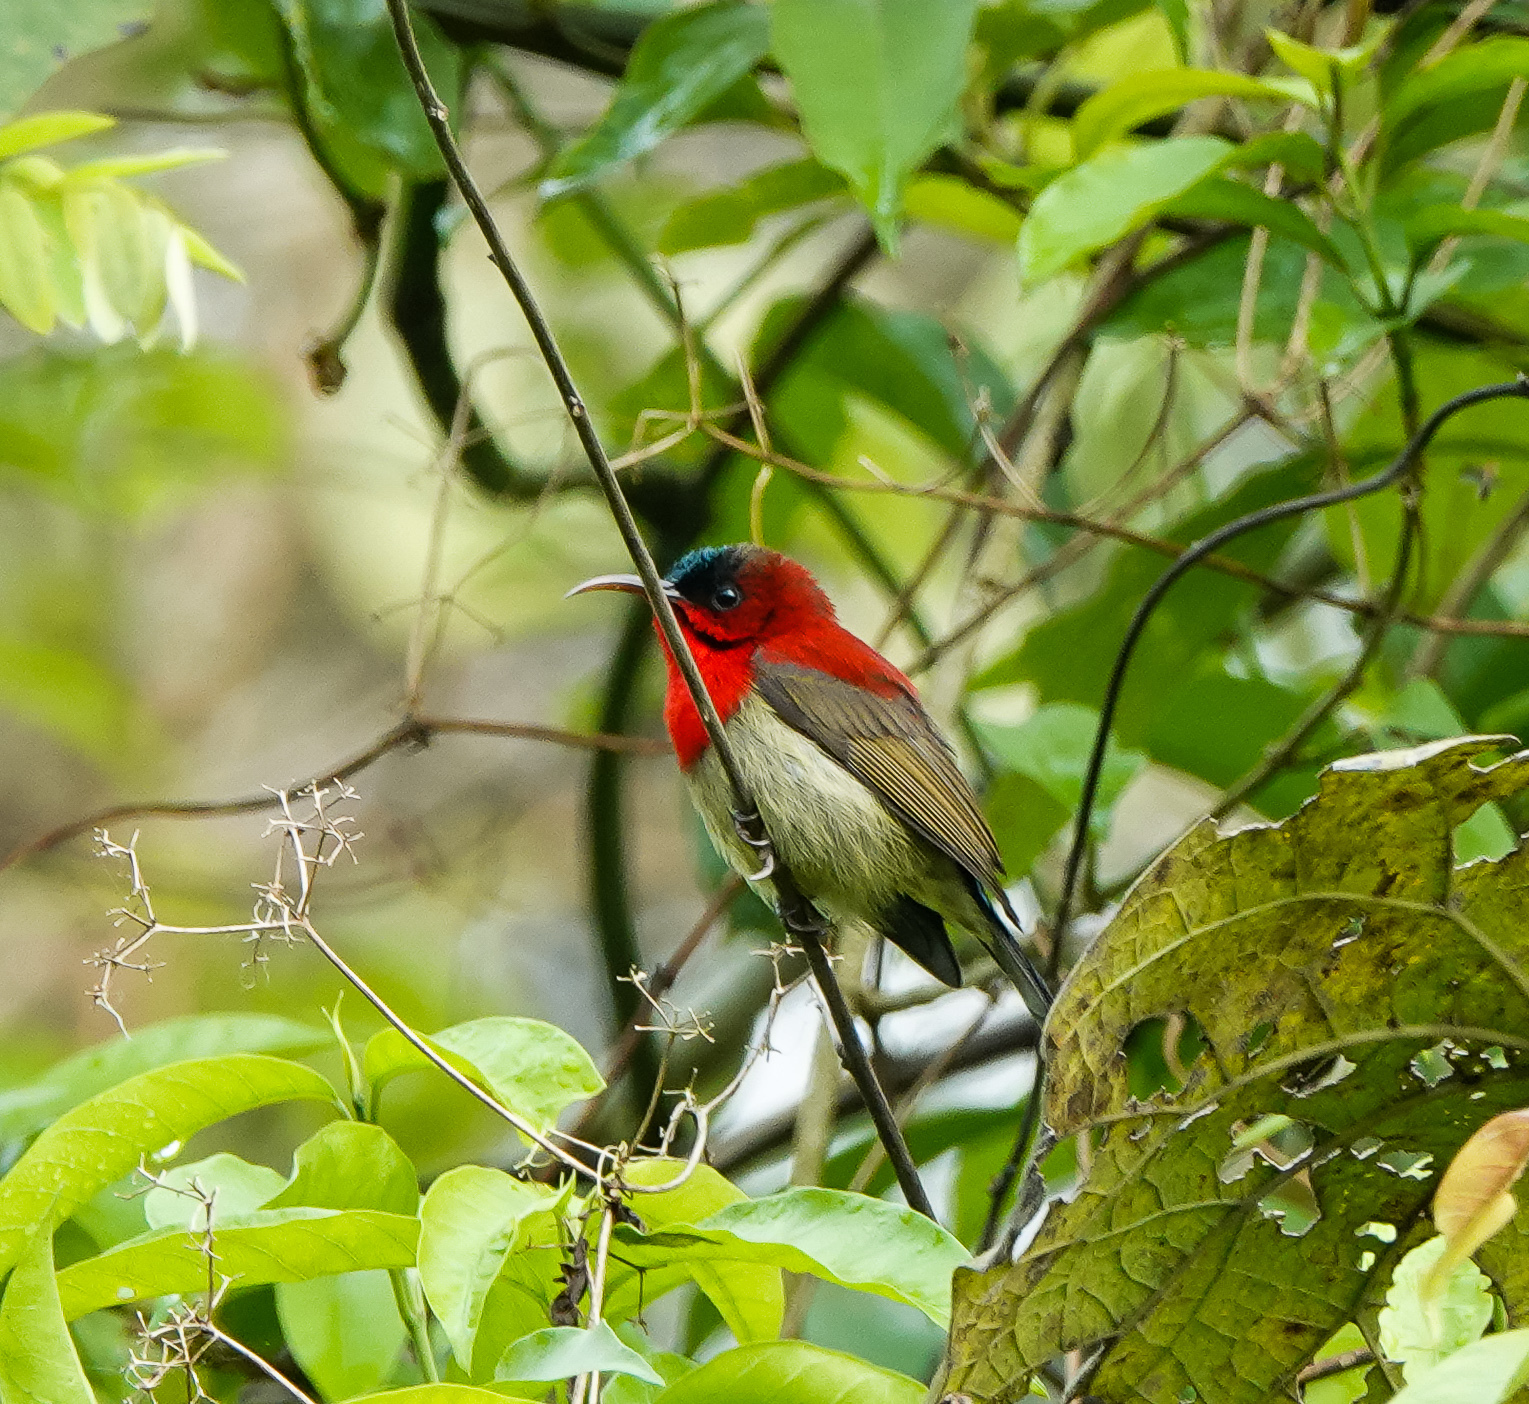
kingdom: Animalia
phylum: Chordata
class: Aves
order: Passeriformes
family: Nectariniidae
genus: Aethopyga
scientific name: Aethopyga siparaja
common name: Crimson sunbird
